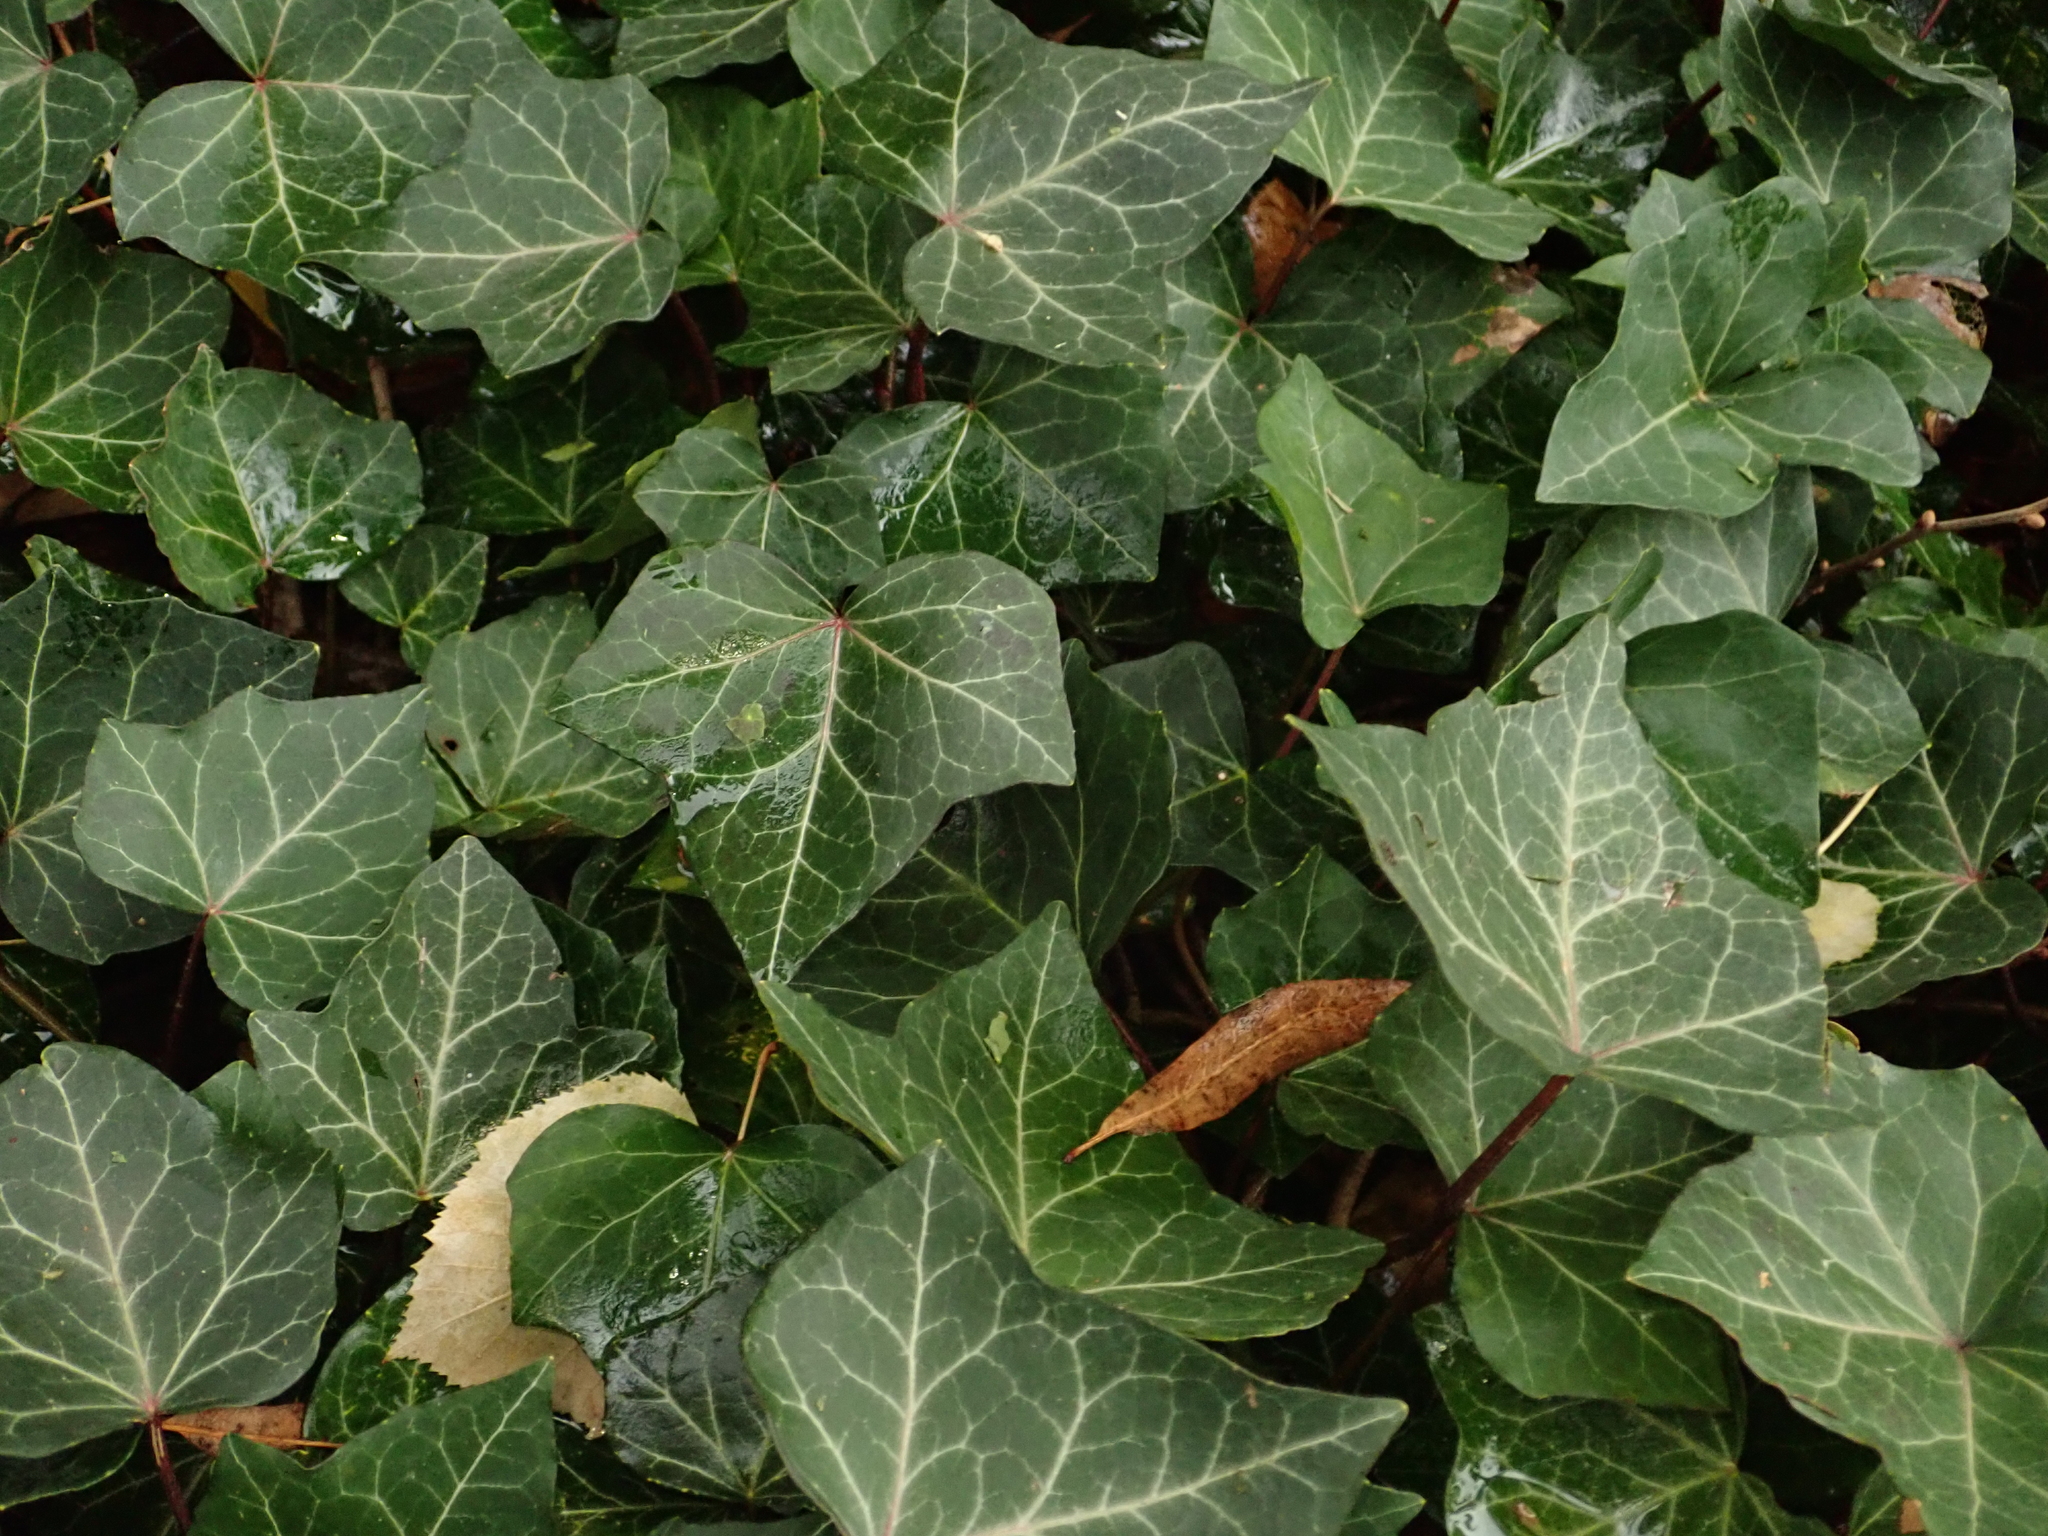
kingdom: Plantae
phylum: Tracheophyta
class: Magnoliopsida
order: Apiales
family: Araliaceae
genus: Hedera
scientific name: Hedera helix
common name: Ivy
